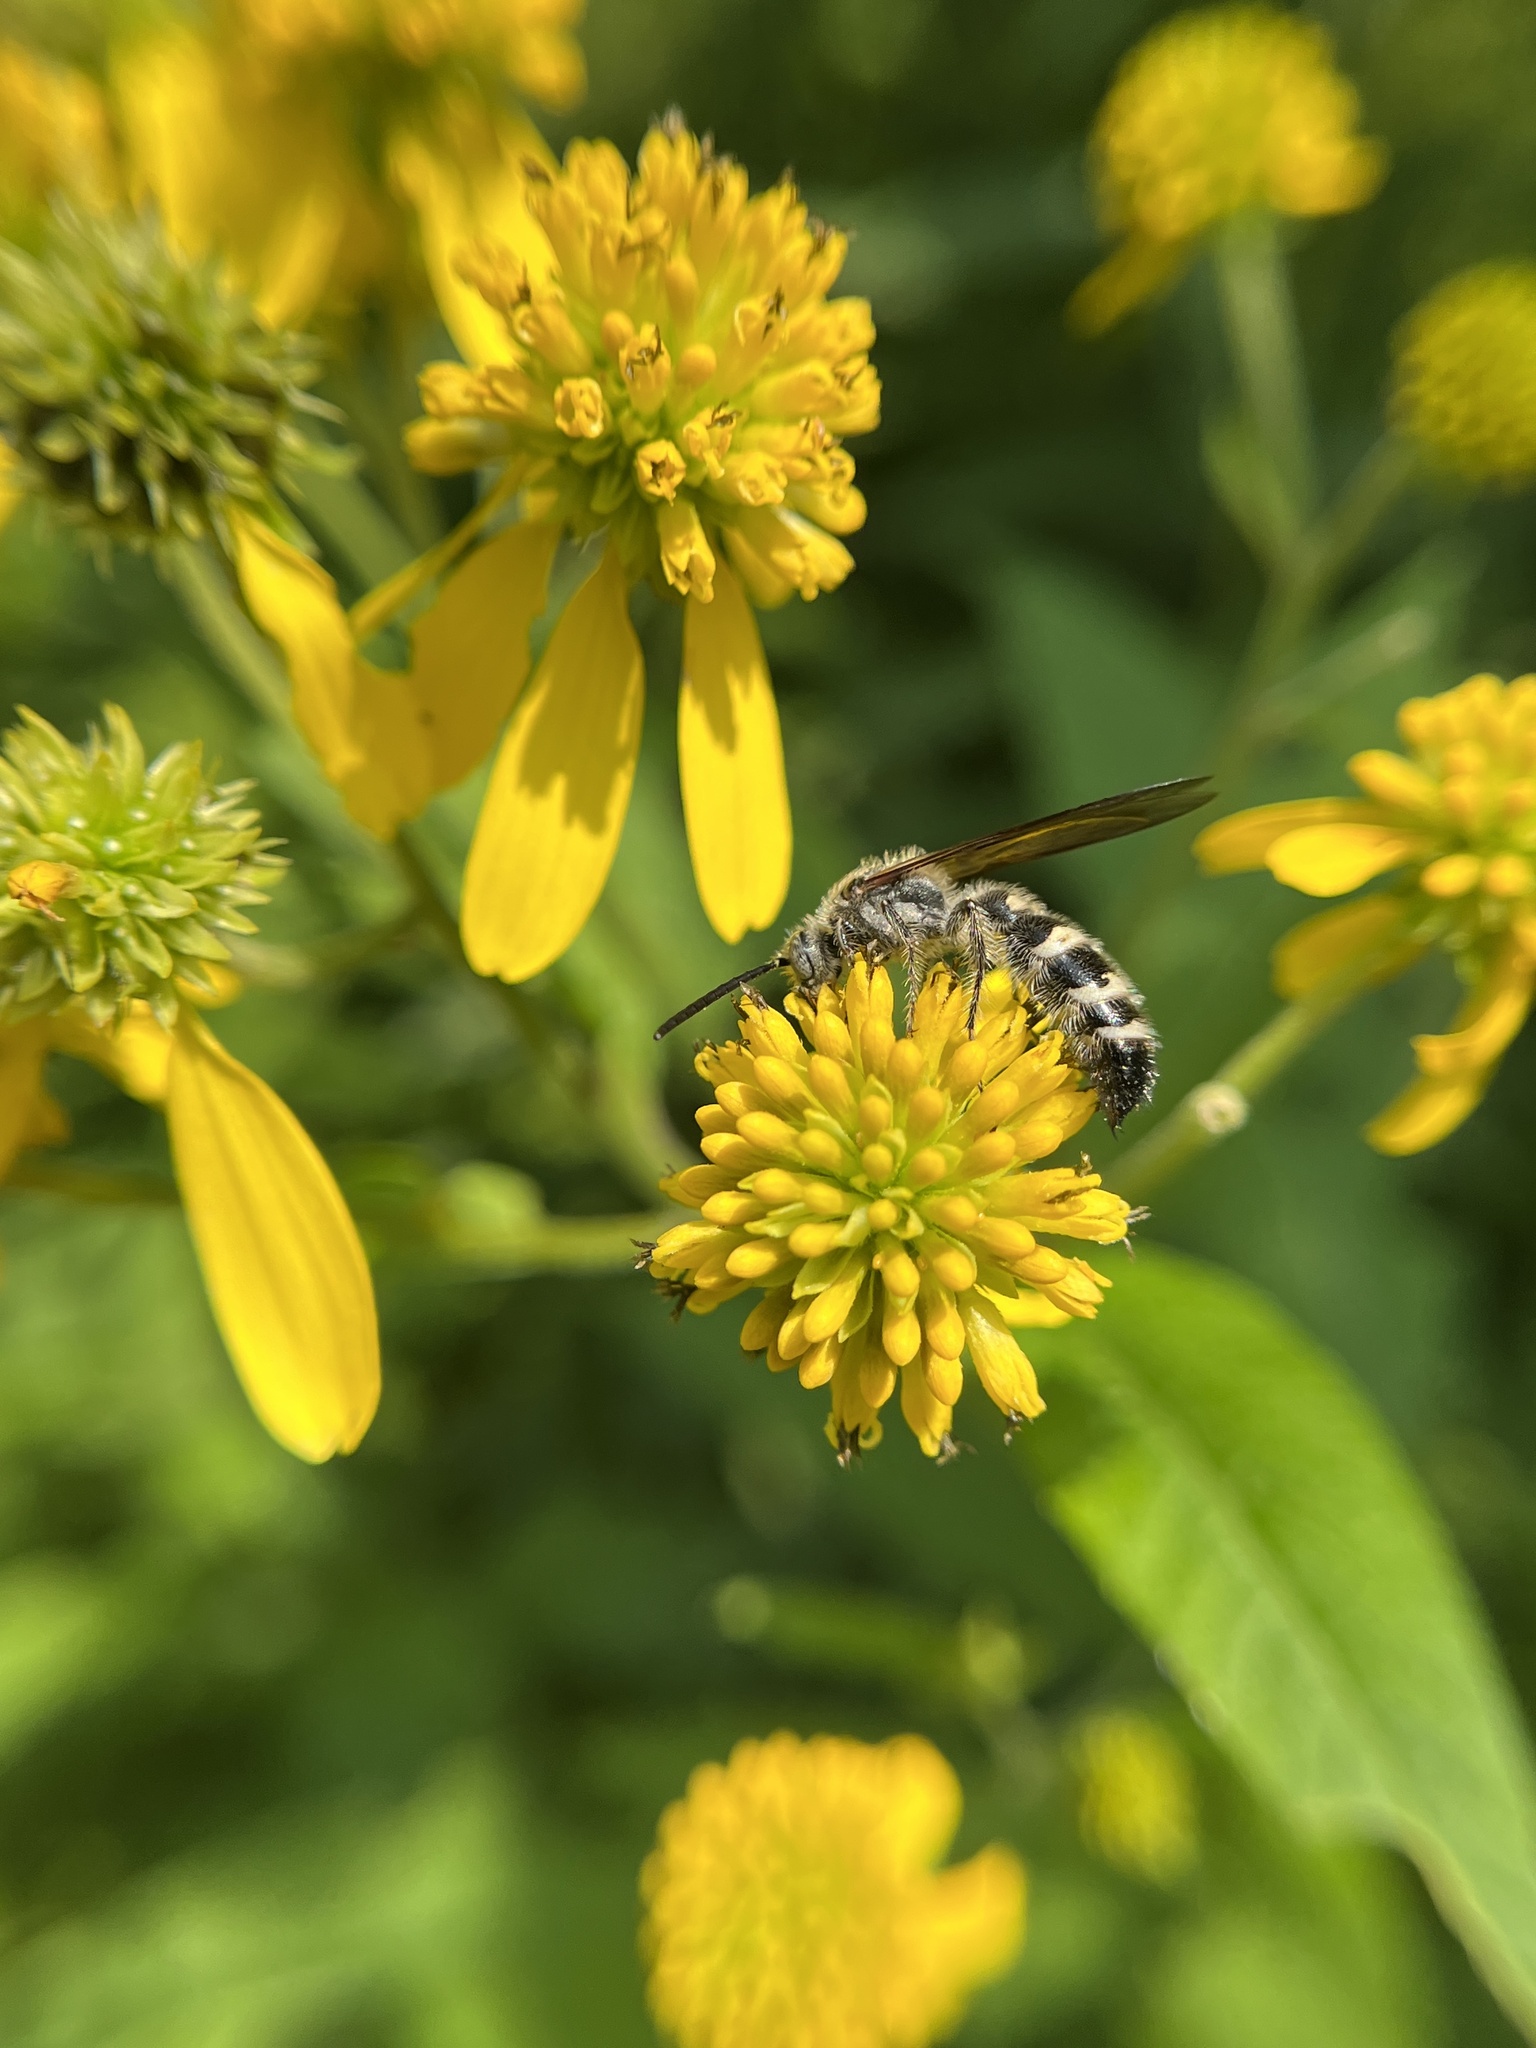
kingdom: Animalia
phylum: Arthropoda
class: Insecta
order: Hymenoptera
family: Scoliidae
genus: Dielis
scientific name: Dielis
